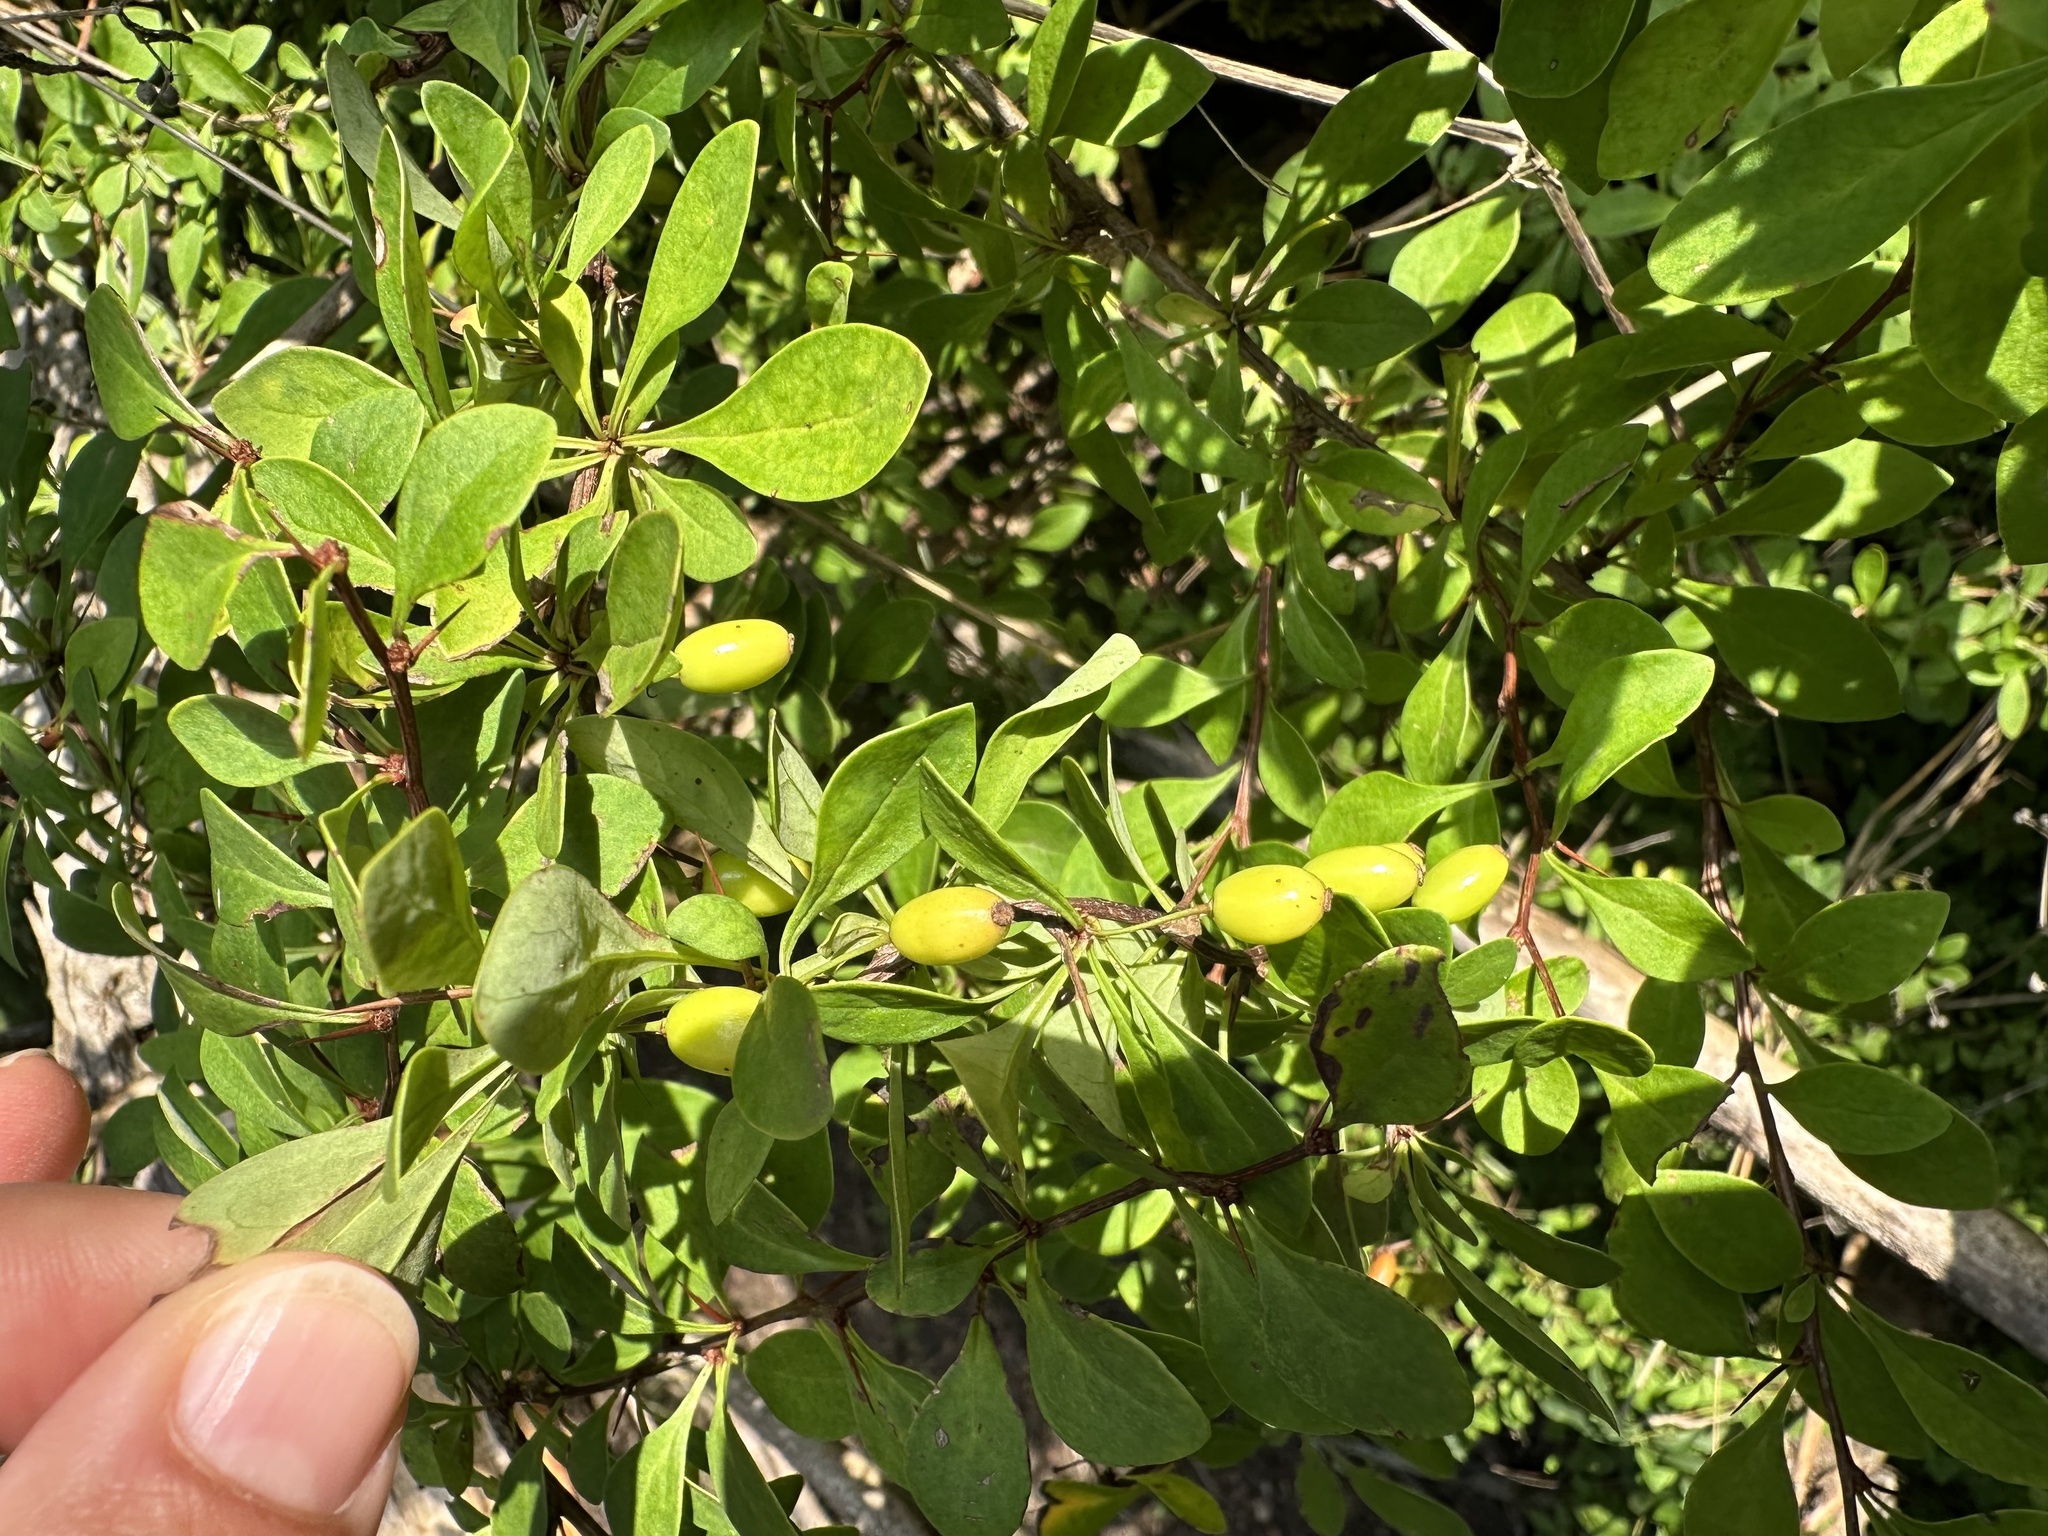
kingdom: Plantae
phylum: Tracheophyta
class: Magnoliopsida
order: Ranunculales
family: Berberidaceae
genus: Berberis
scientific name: Berberis vulgaris
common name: Barberry
